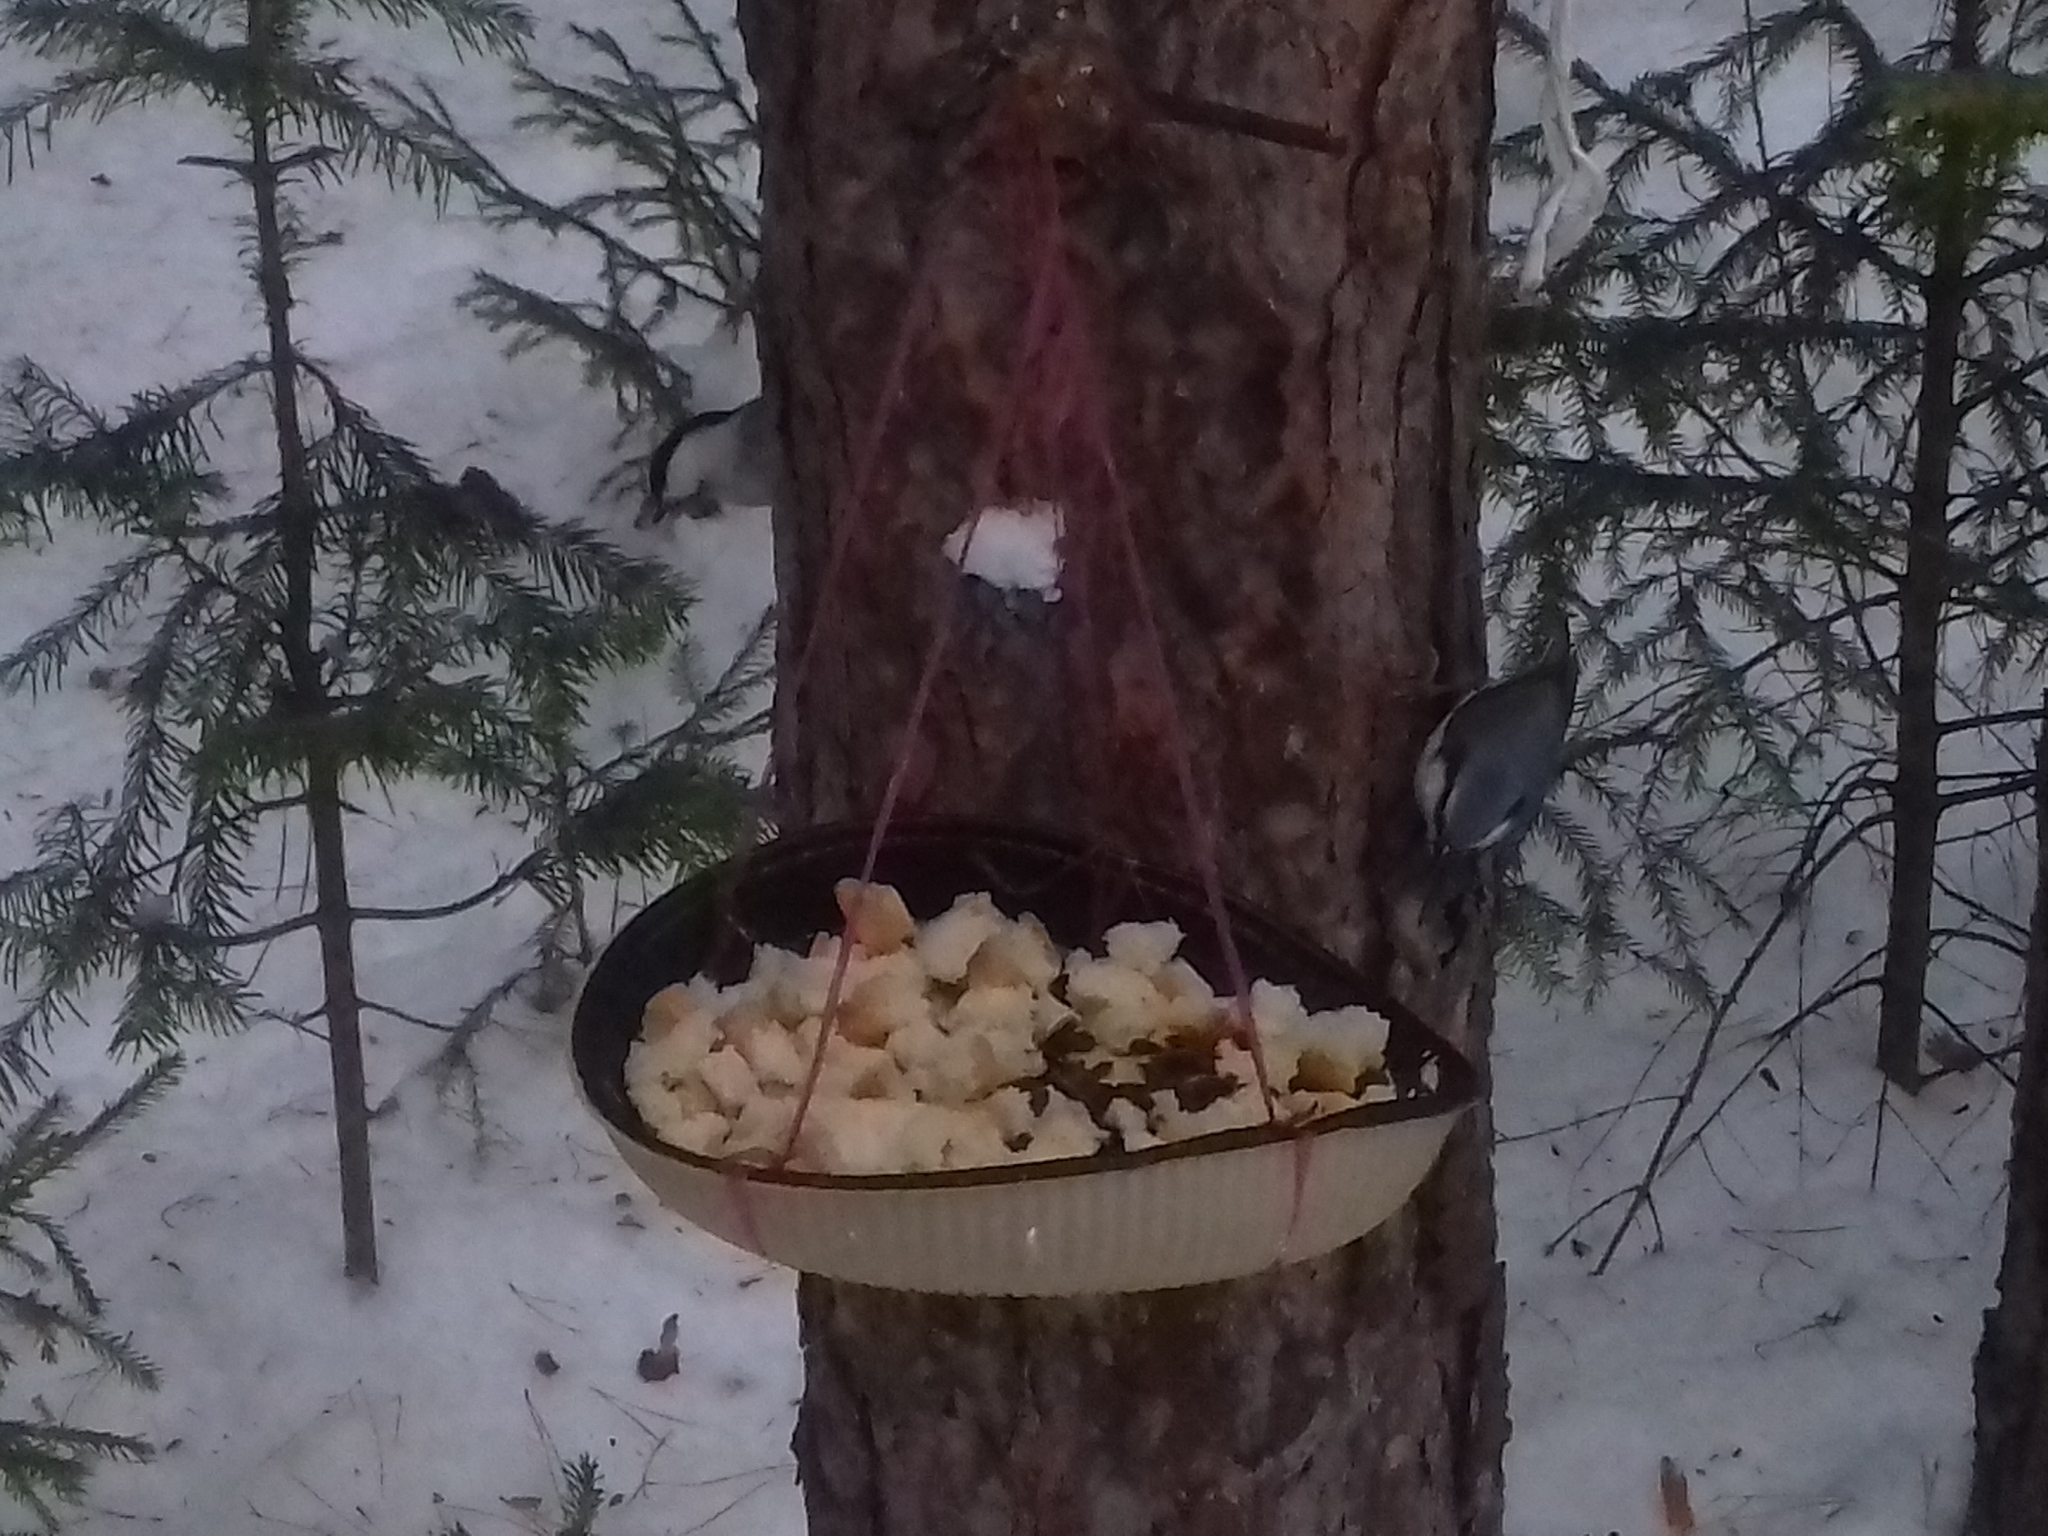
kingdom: Animalia
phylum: Chordata
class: Aves
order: Passeriformes
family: Sittidae
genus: Sitta
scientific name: Sitta europaea
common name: Eurasian nuthatch
